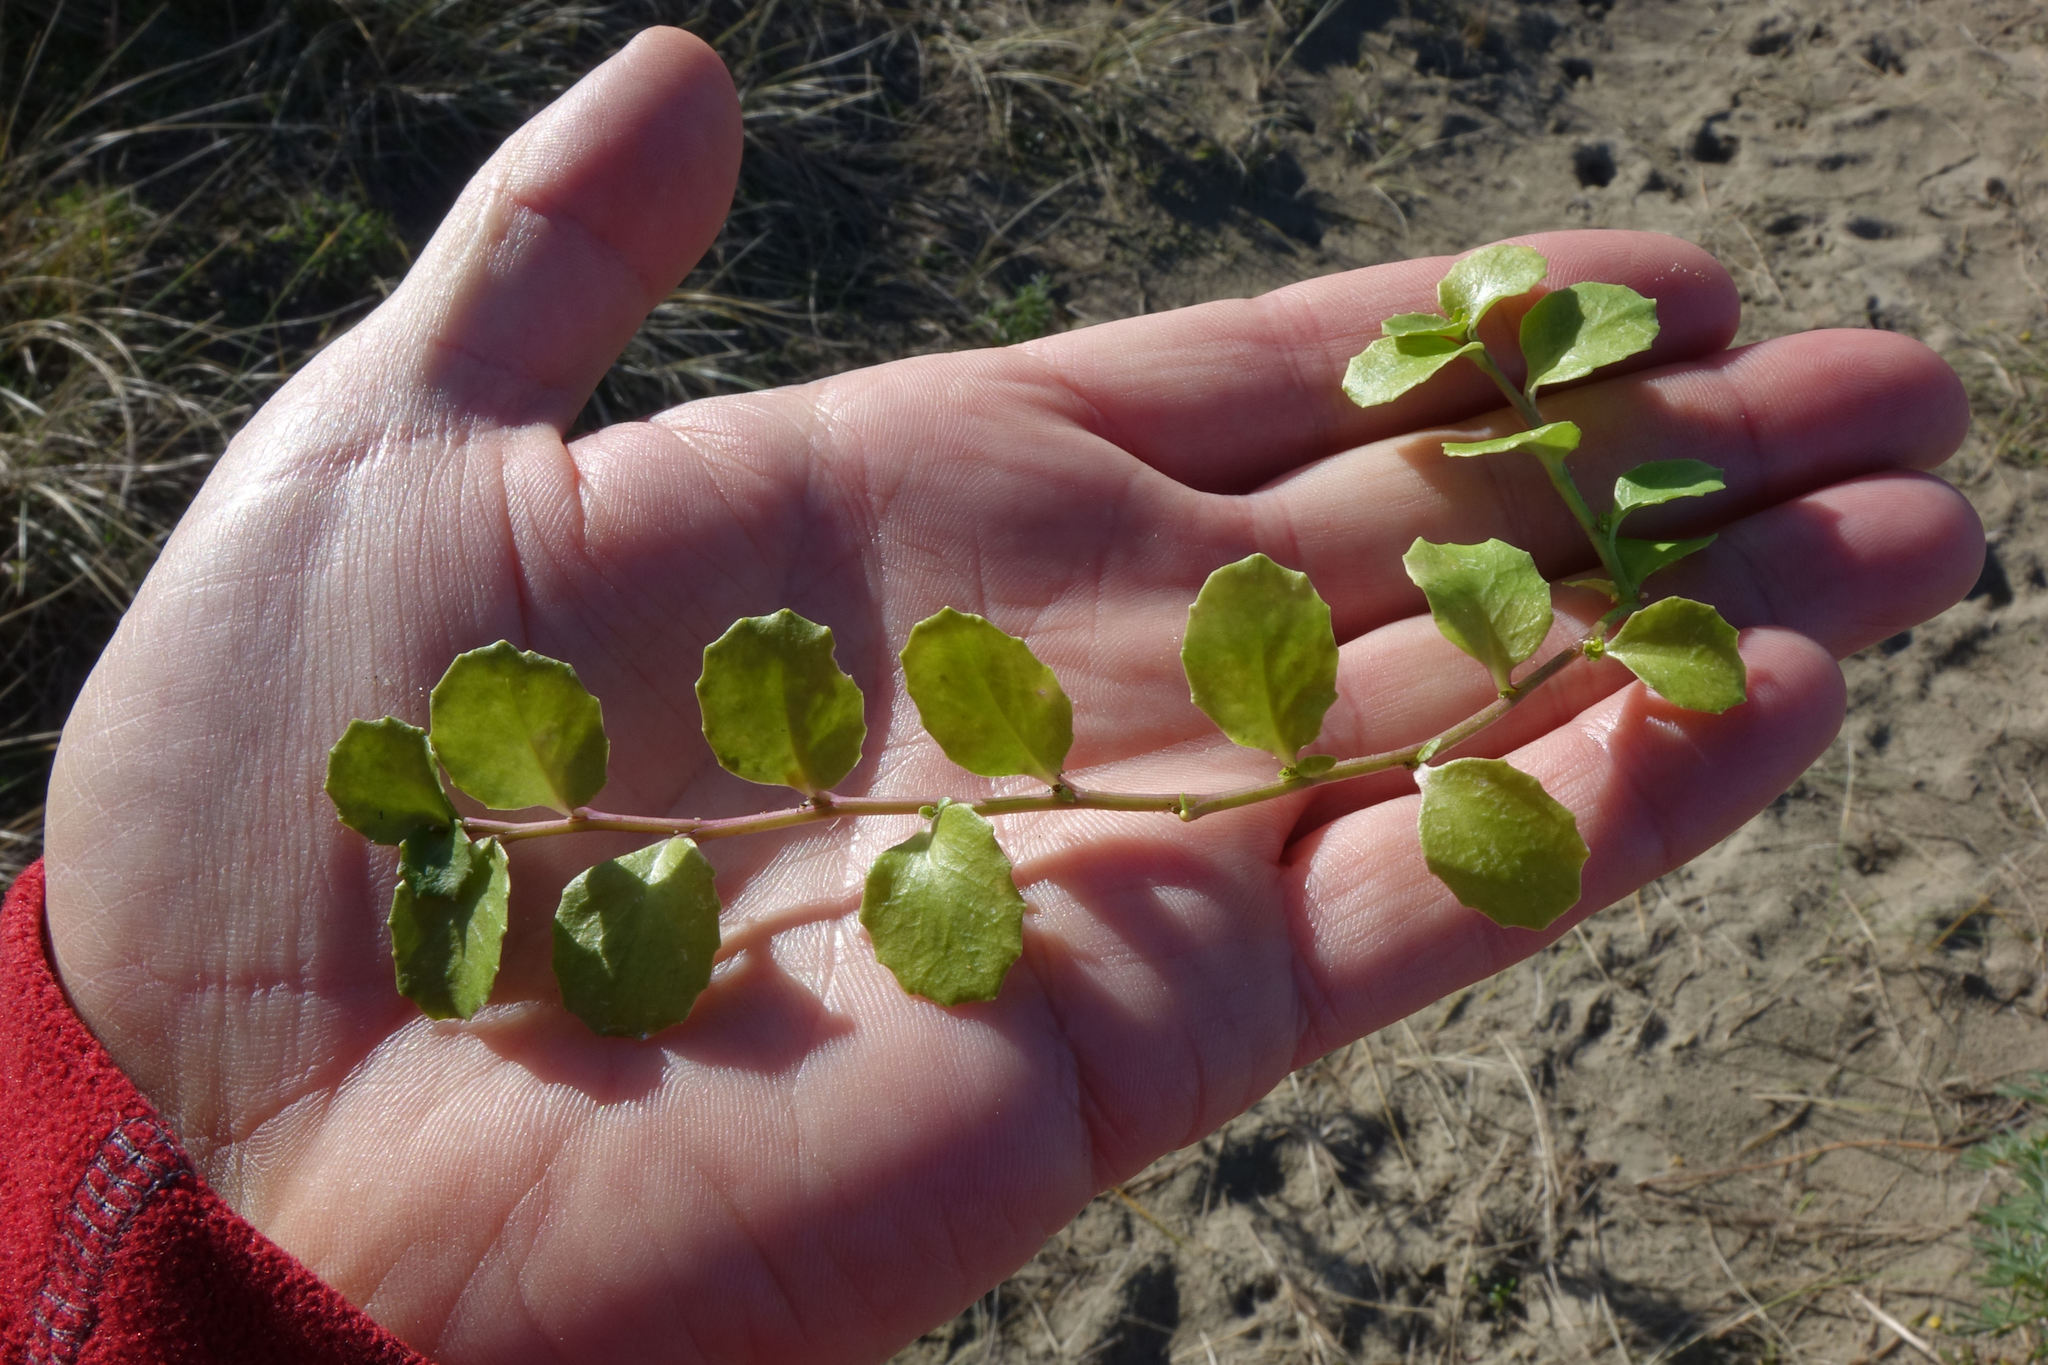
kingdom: Plantae
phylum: Tracheophyta
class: Magnoliopsida
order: Asterales
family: Campanulaceae
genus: Lobelia
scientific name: Lobelia arenaria
